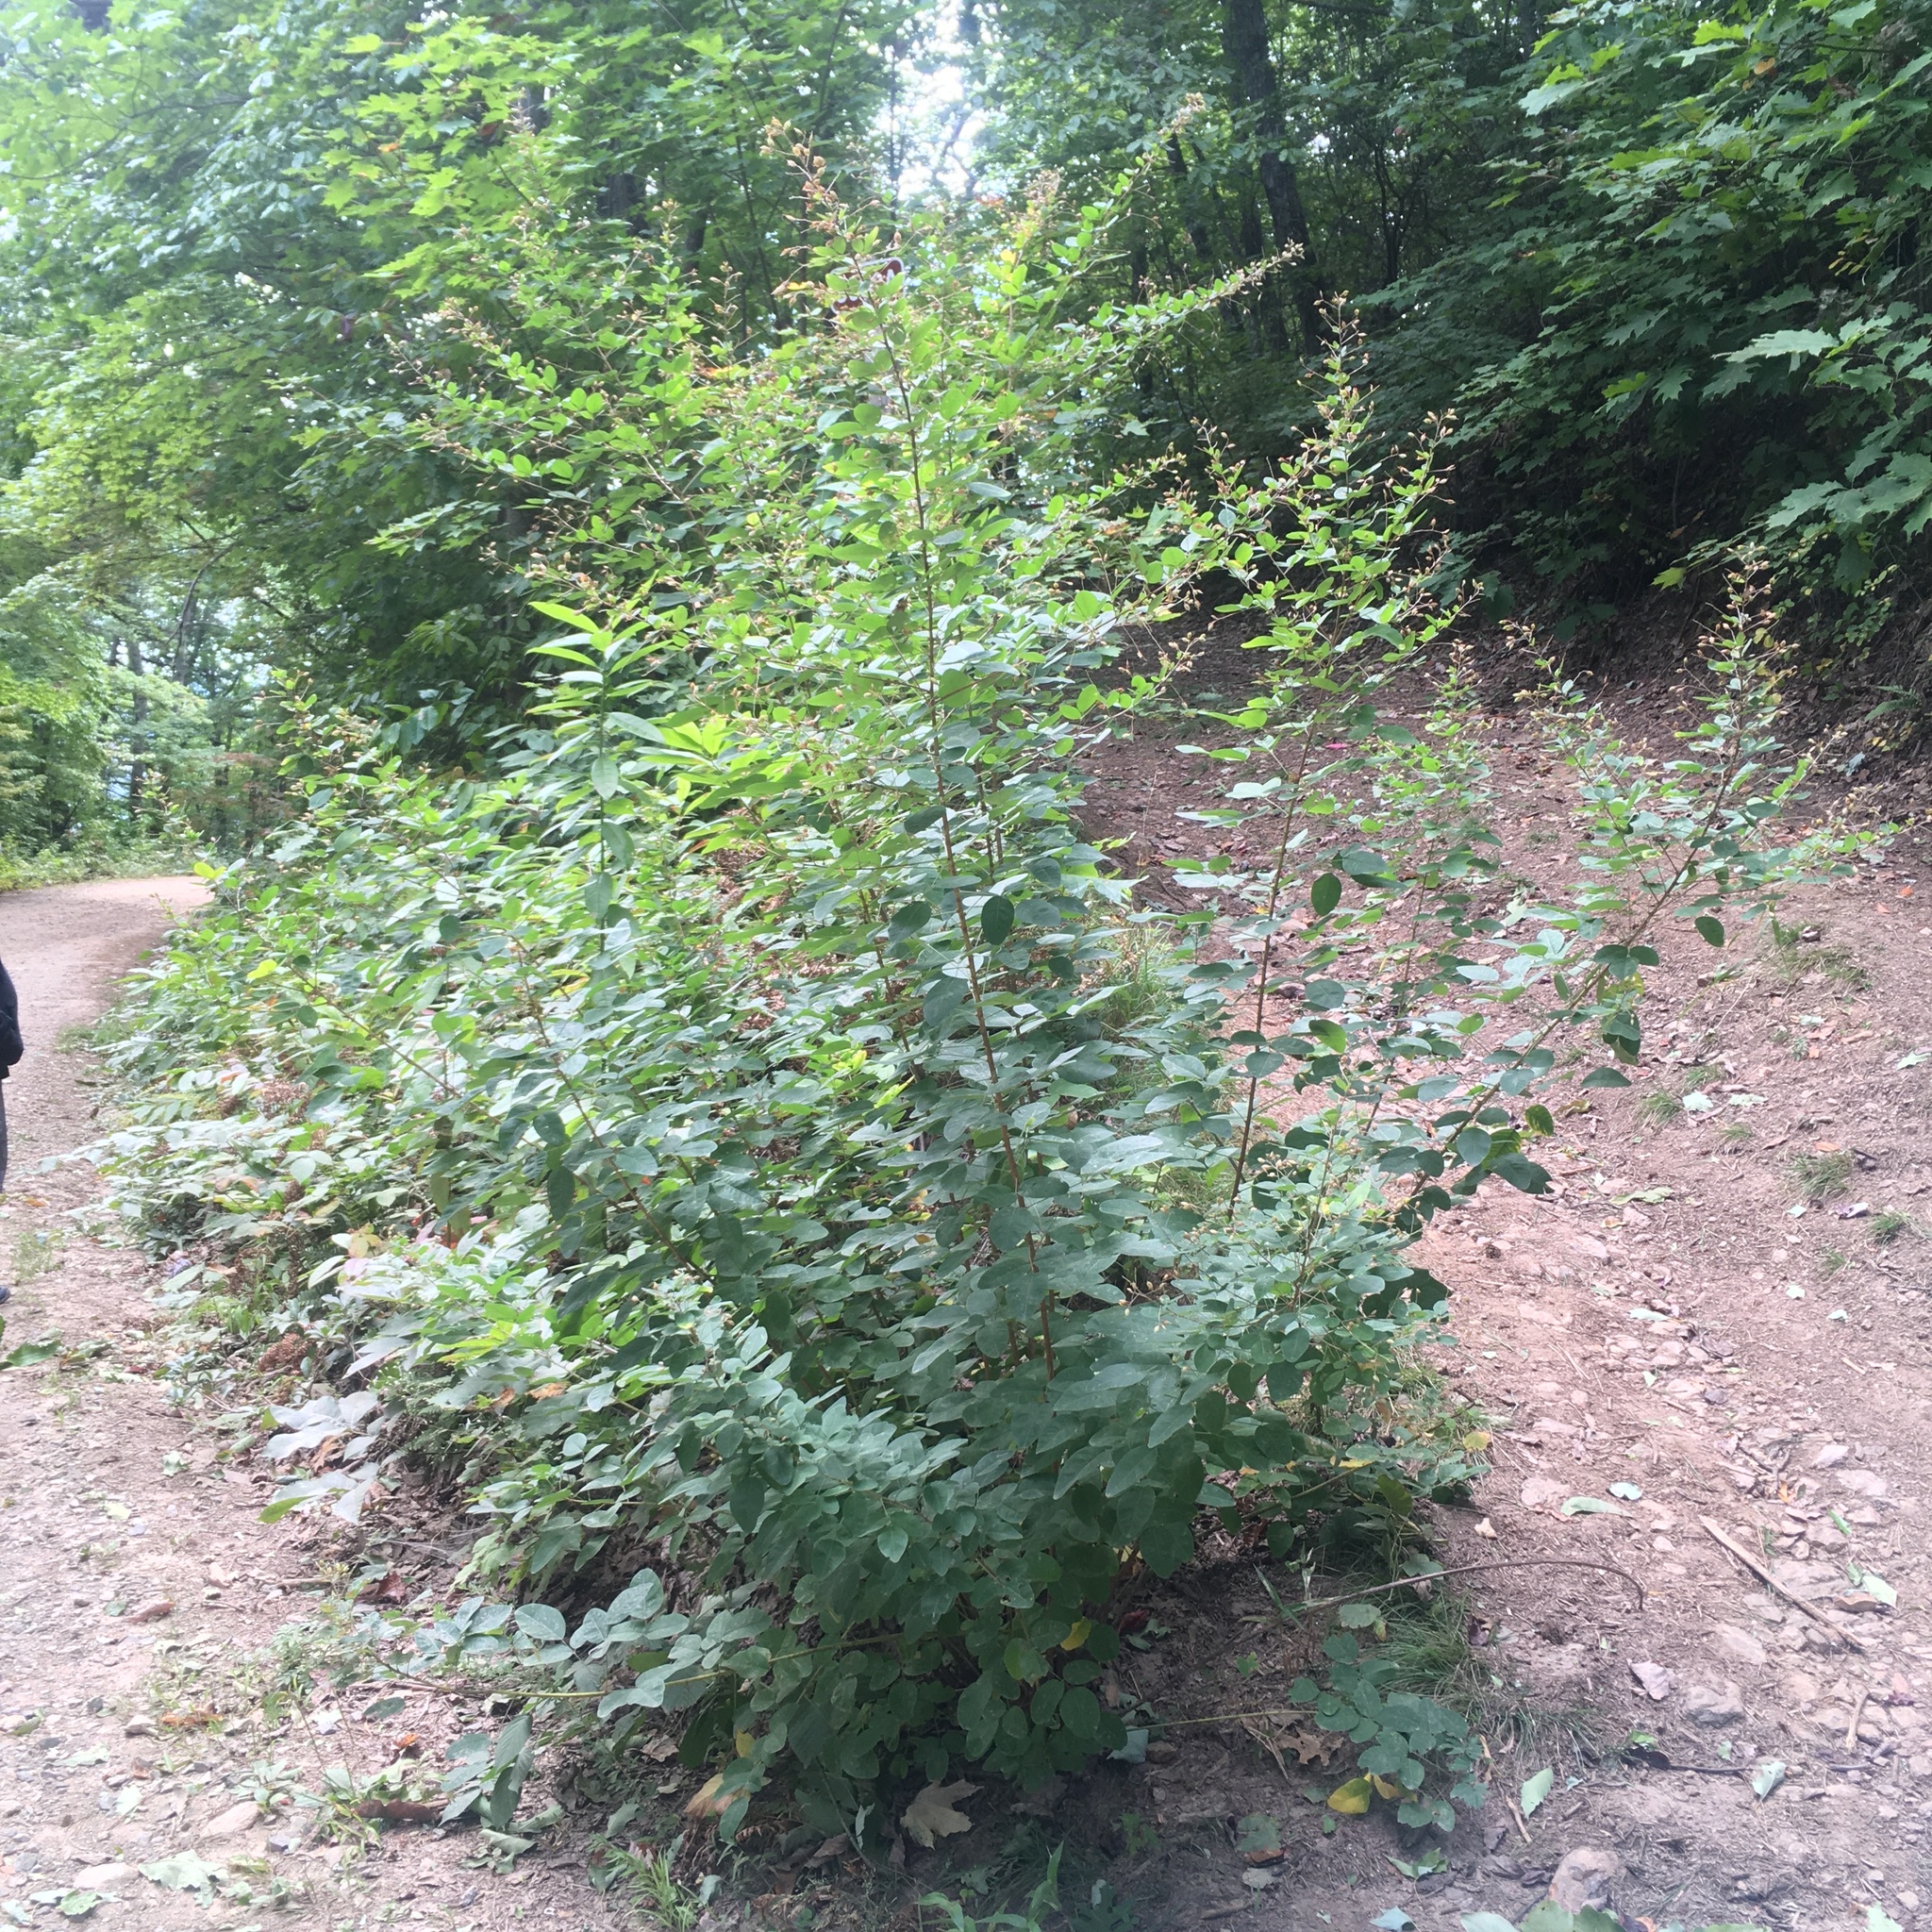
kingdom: Plantae
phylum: Tracheophyta
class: Magnoliopsida
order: Fabales
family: Fabaceae
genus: Lespedeza
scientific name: Lespedeza bicolor
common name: Shrub lespedeza
